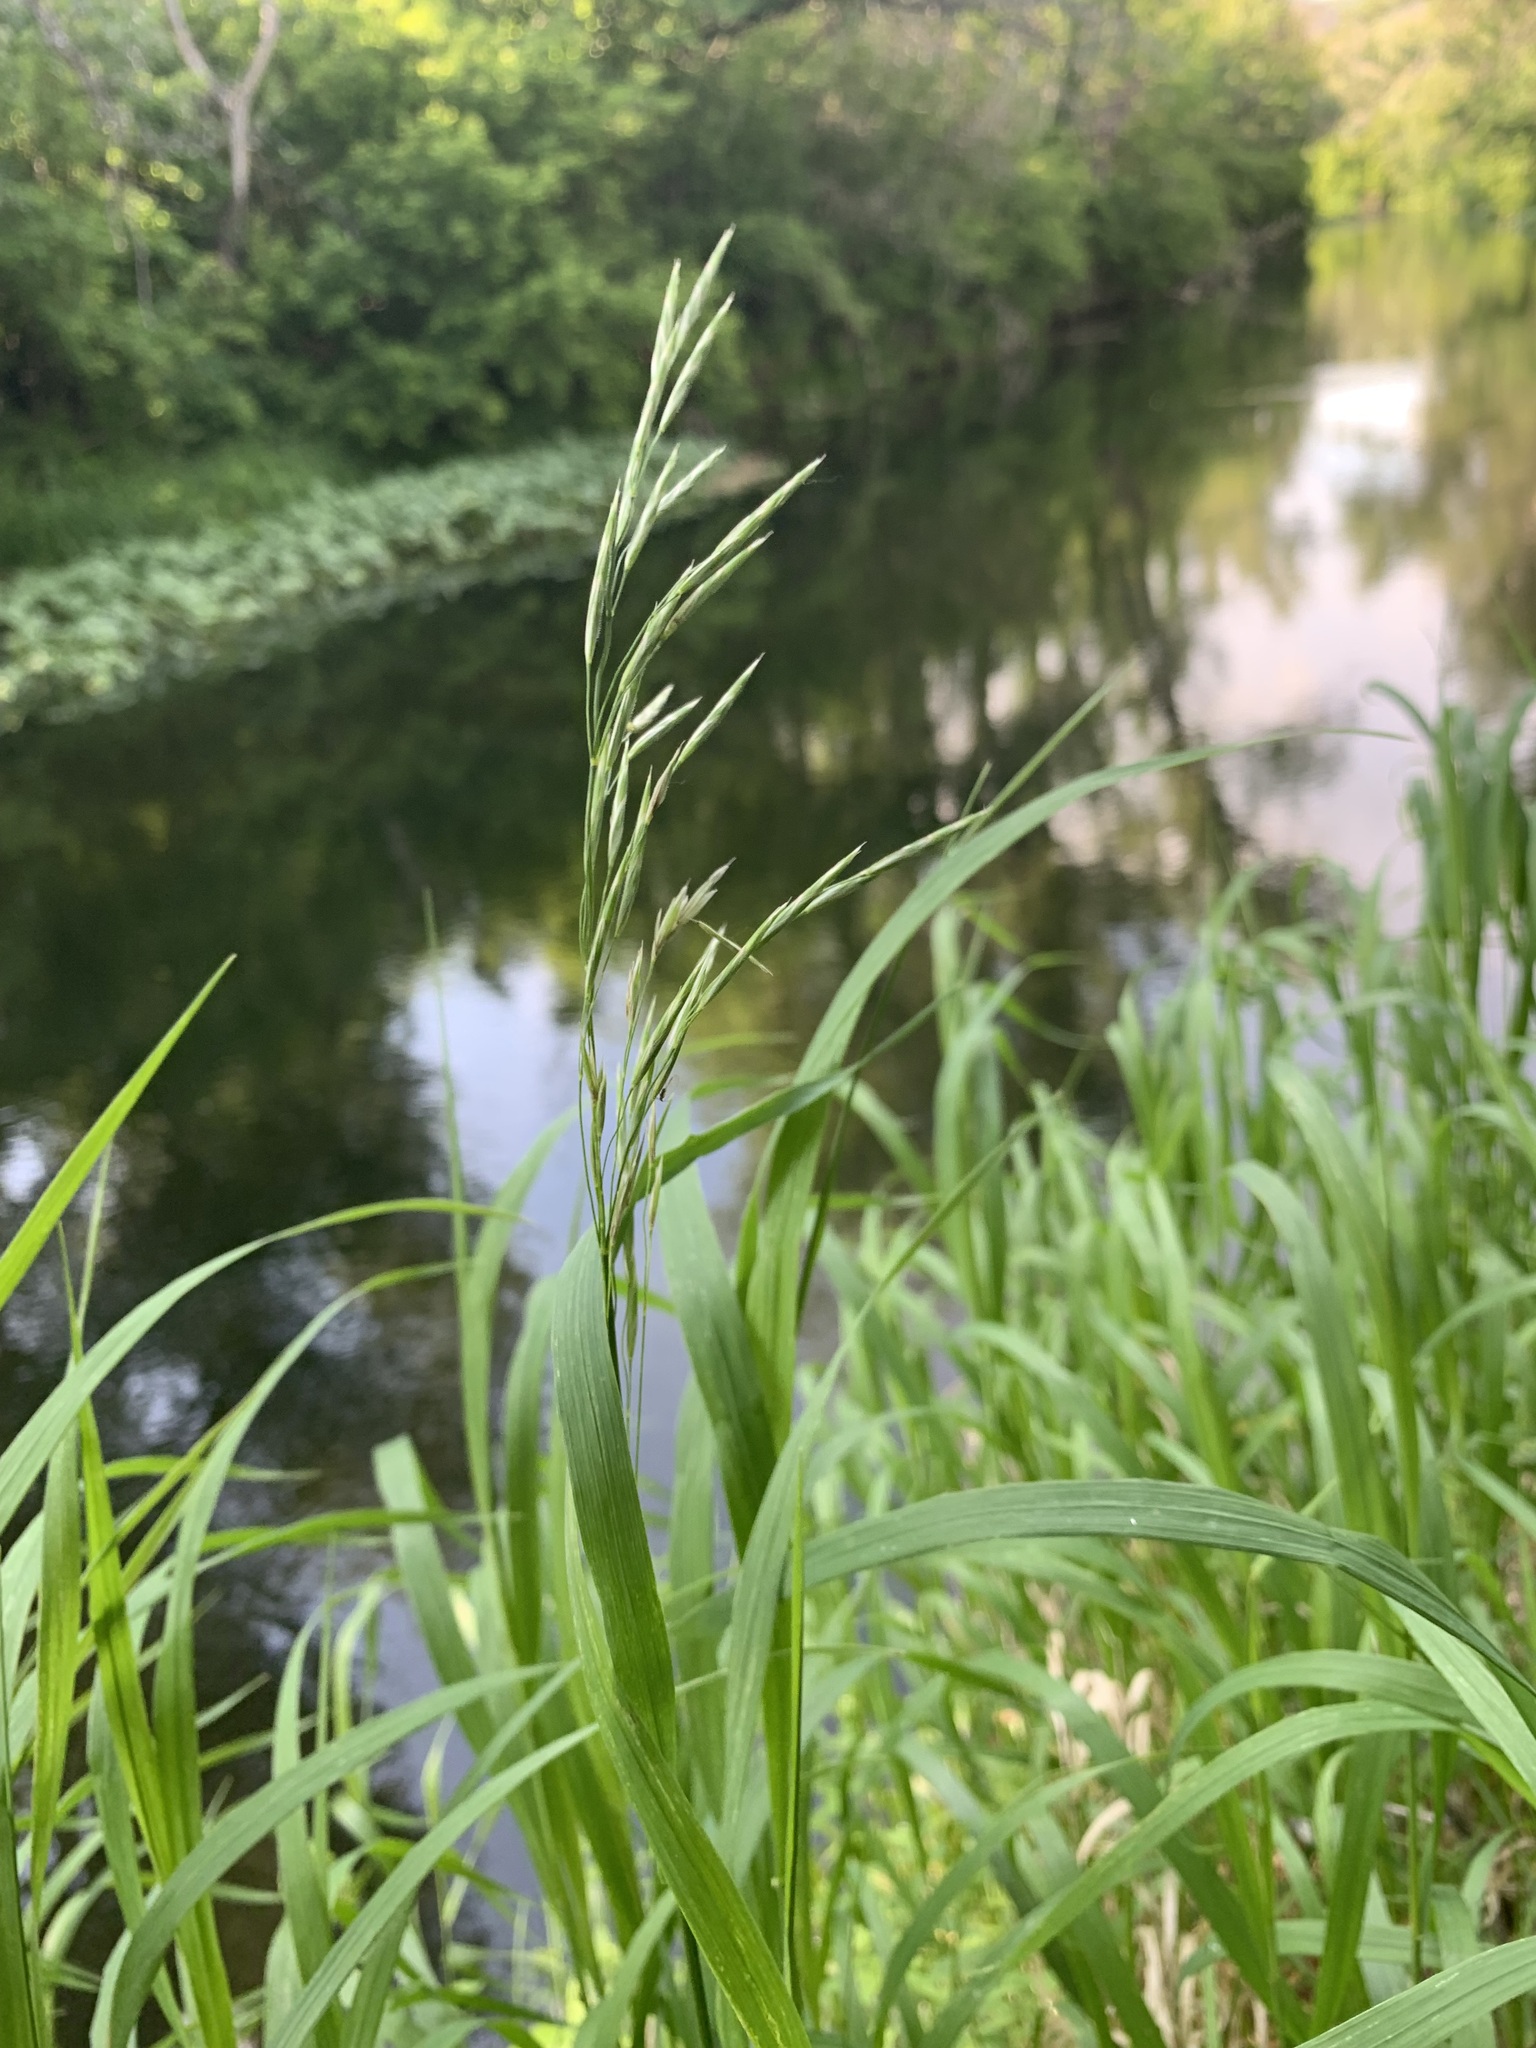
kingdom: Plantae
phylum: Tracheophyta
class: Liliopsida
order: Poales
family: Poaceae
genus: Bromus
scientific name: Bromus inermis
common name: Smooth brome
